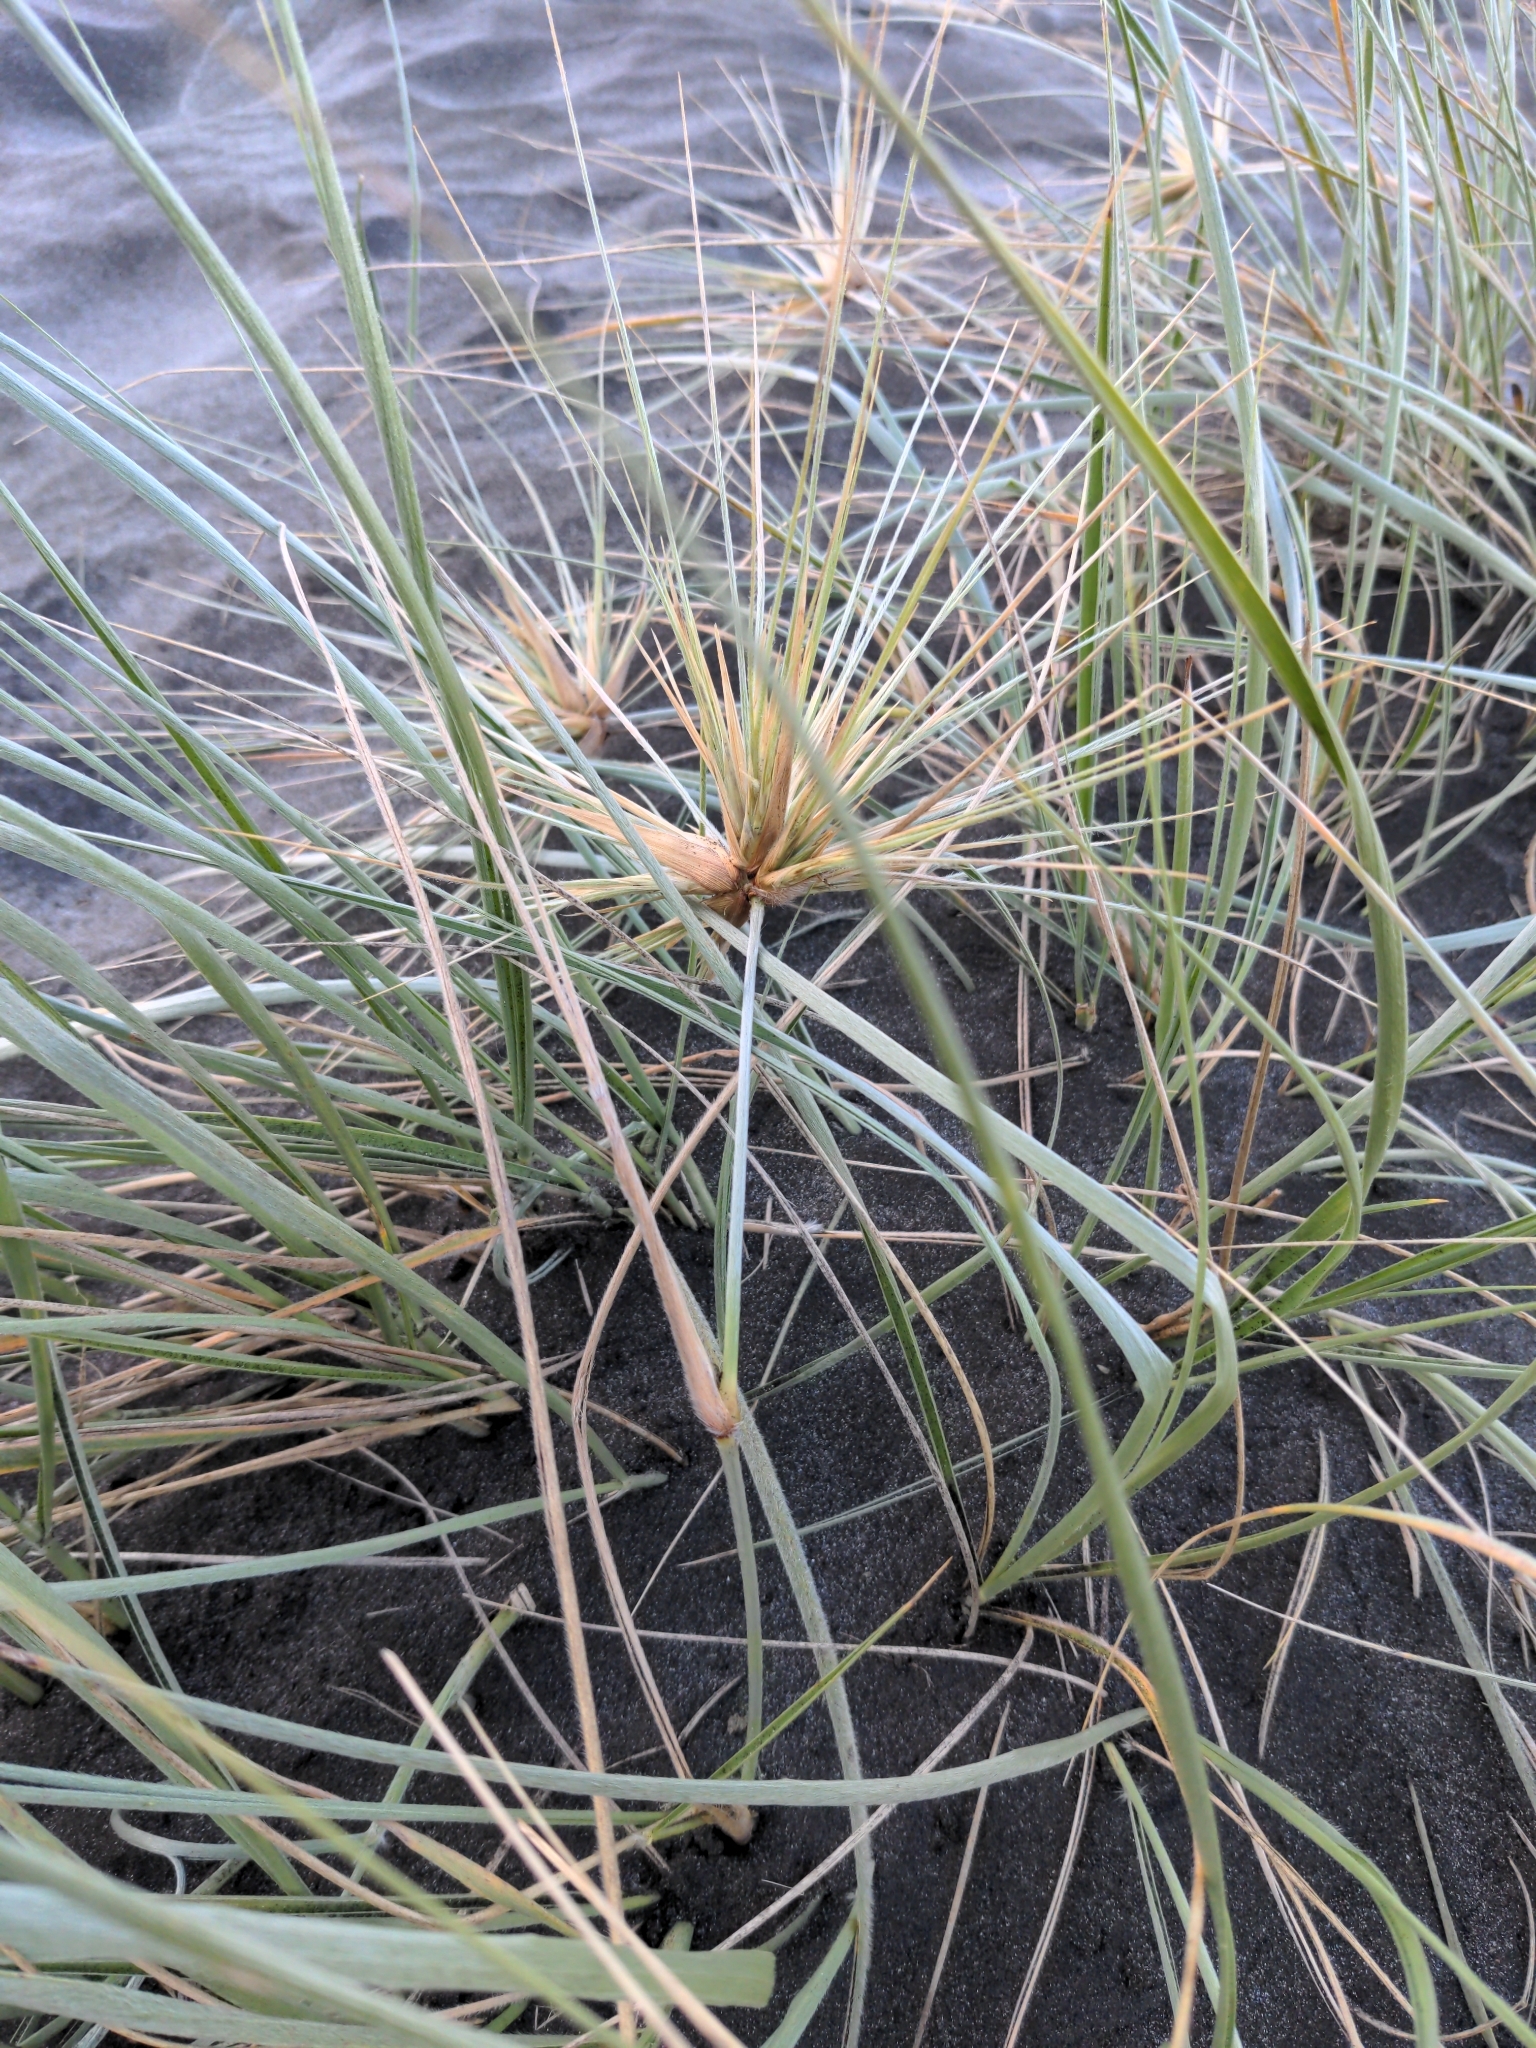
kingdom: Plantae
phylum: Tracheophyta
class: Liliopsida
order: Poales
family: Poaceae
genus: Spinifex
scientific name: Spinifex sericeus
